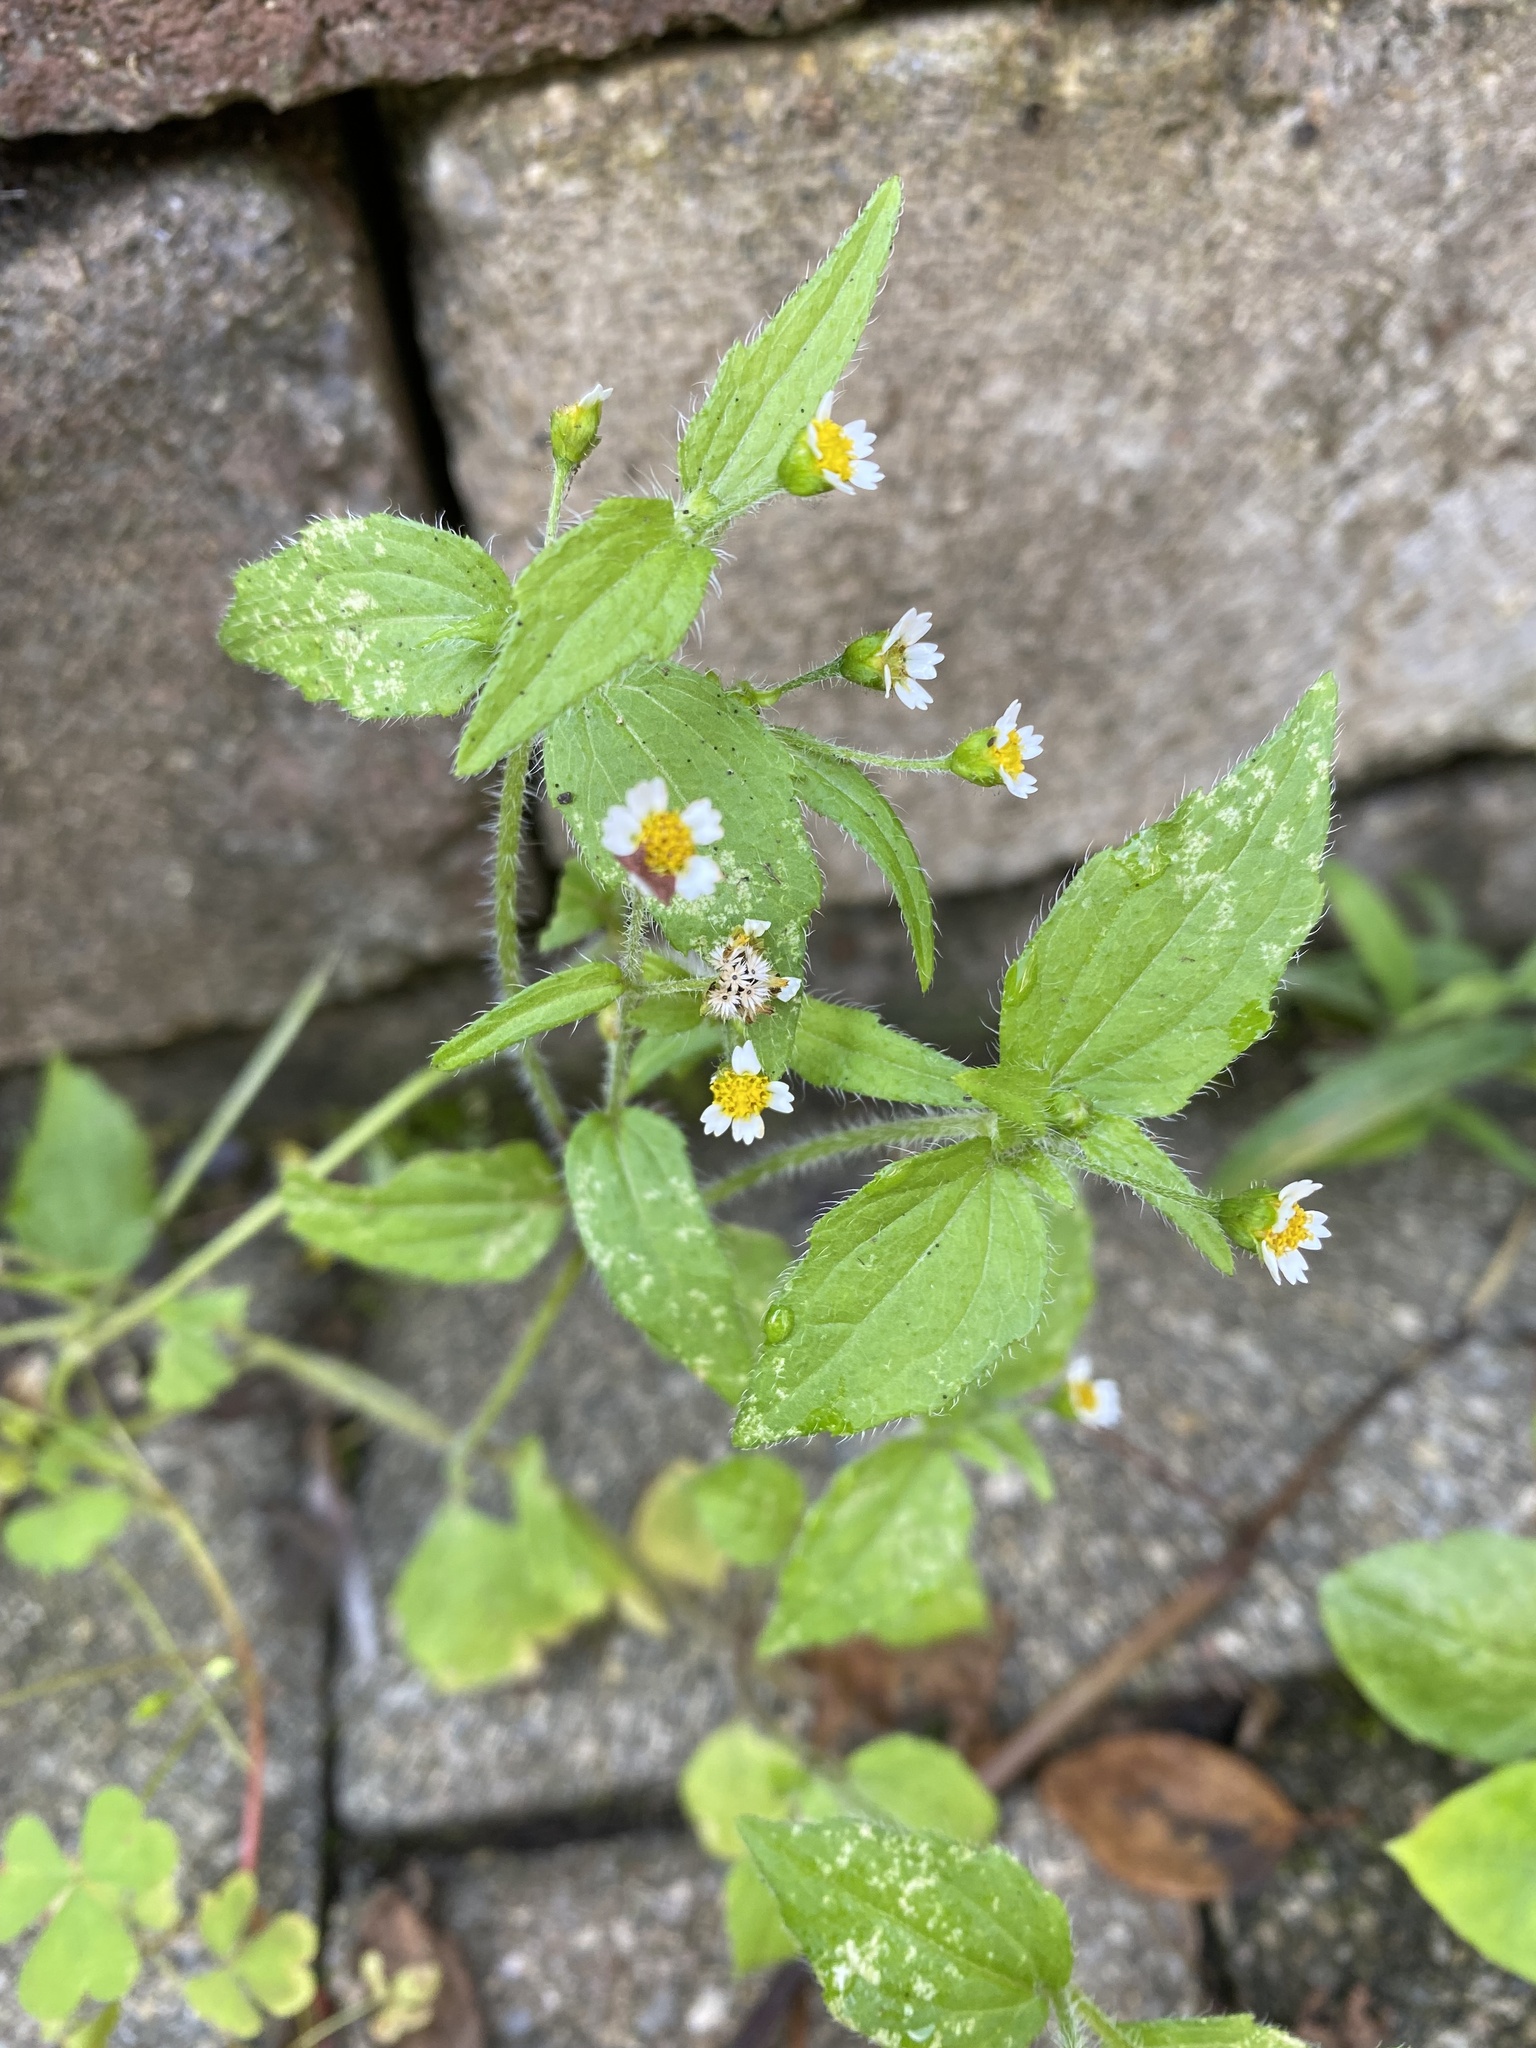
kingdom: Plantae
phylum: Tracheophyta
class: Magnoliopsida
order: Asterales
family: Asteraceae
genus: Galinsoga
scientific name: Galinsoga quadriradiata
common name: Shaggy soldier
